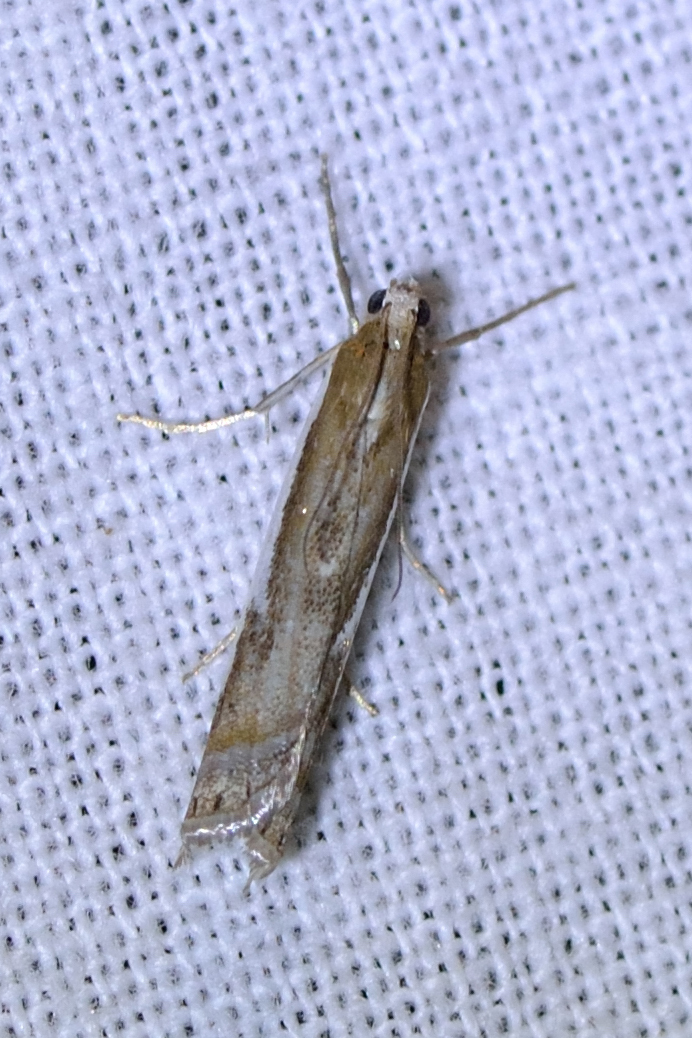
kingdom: Animalia
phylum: Arthropoda
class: Insecta
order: Lepidoptera
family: Crambidae
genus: Crambus
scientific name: Crambus hamella
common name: Dark grass-veneer
